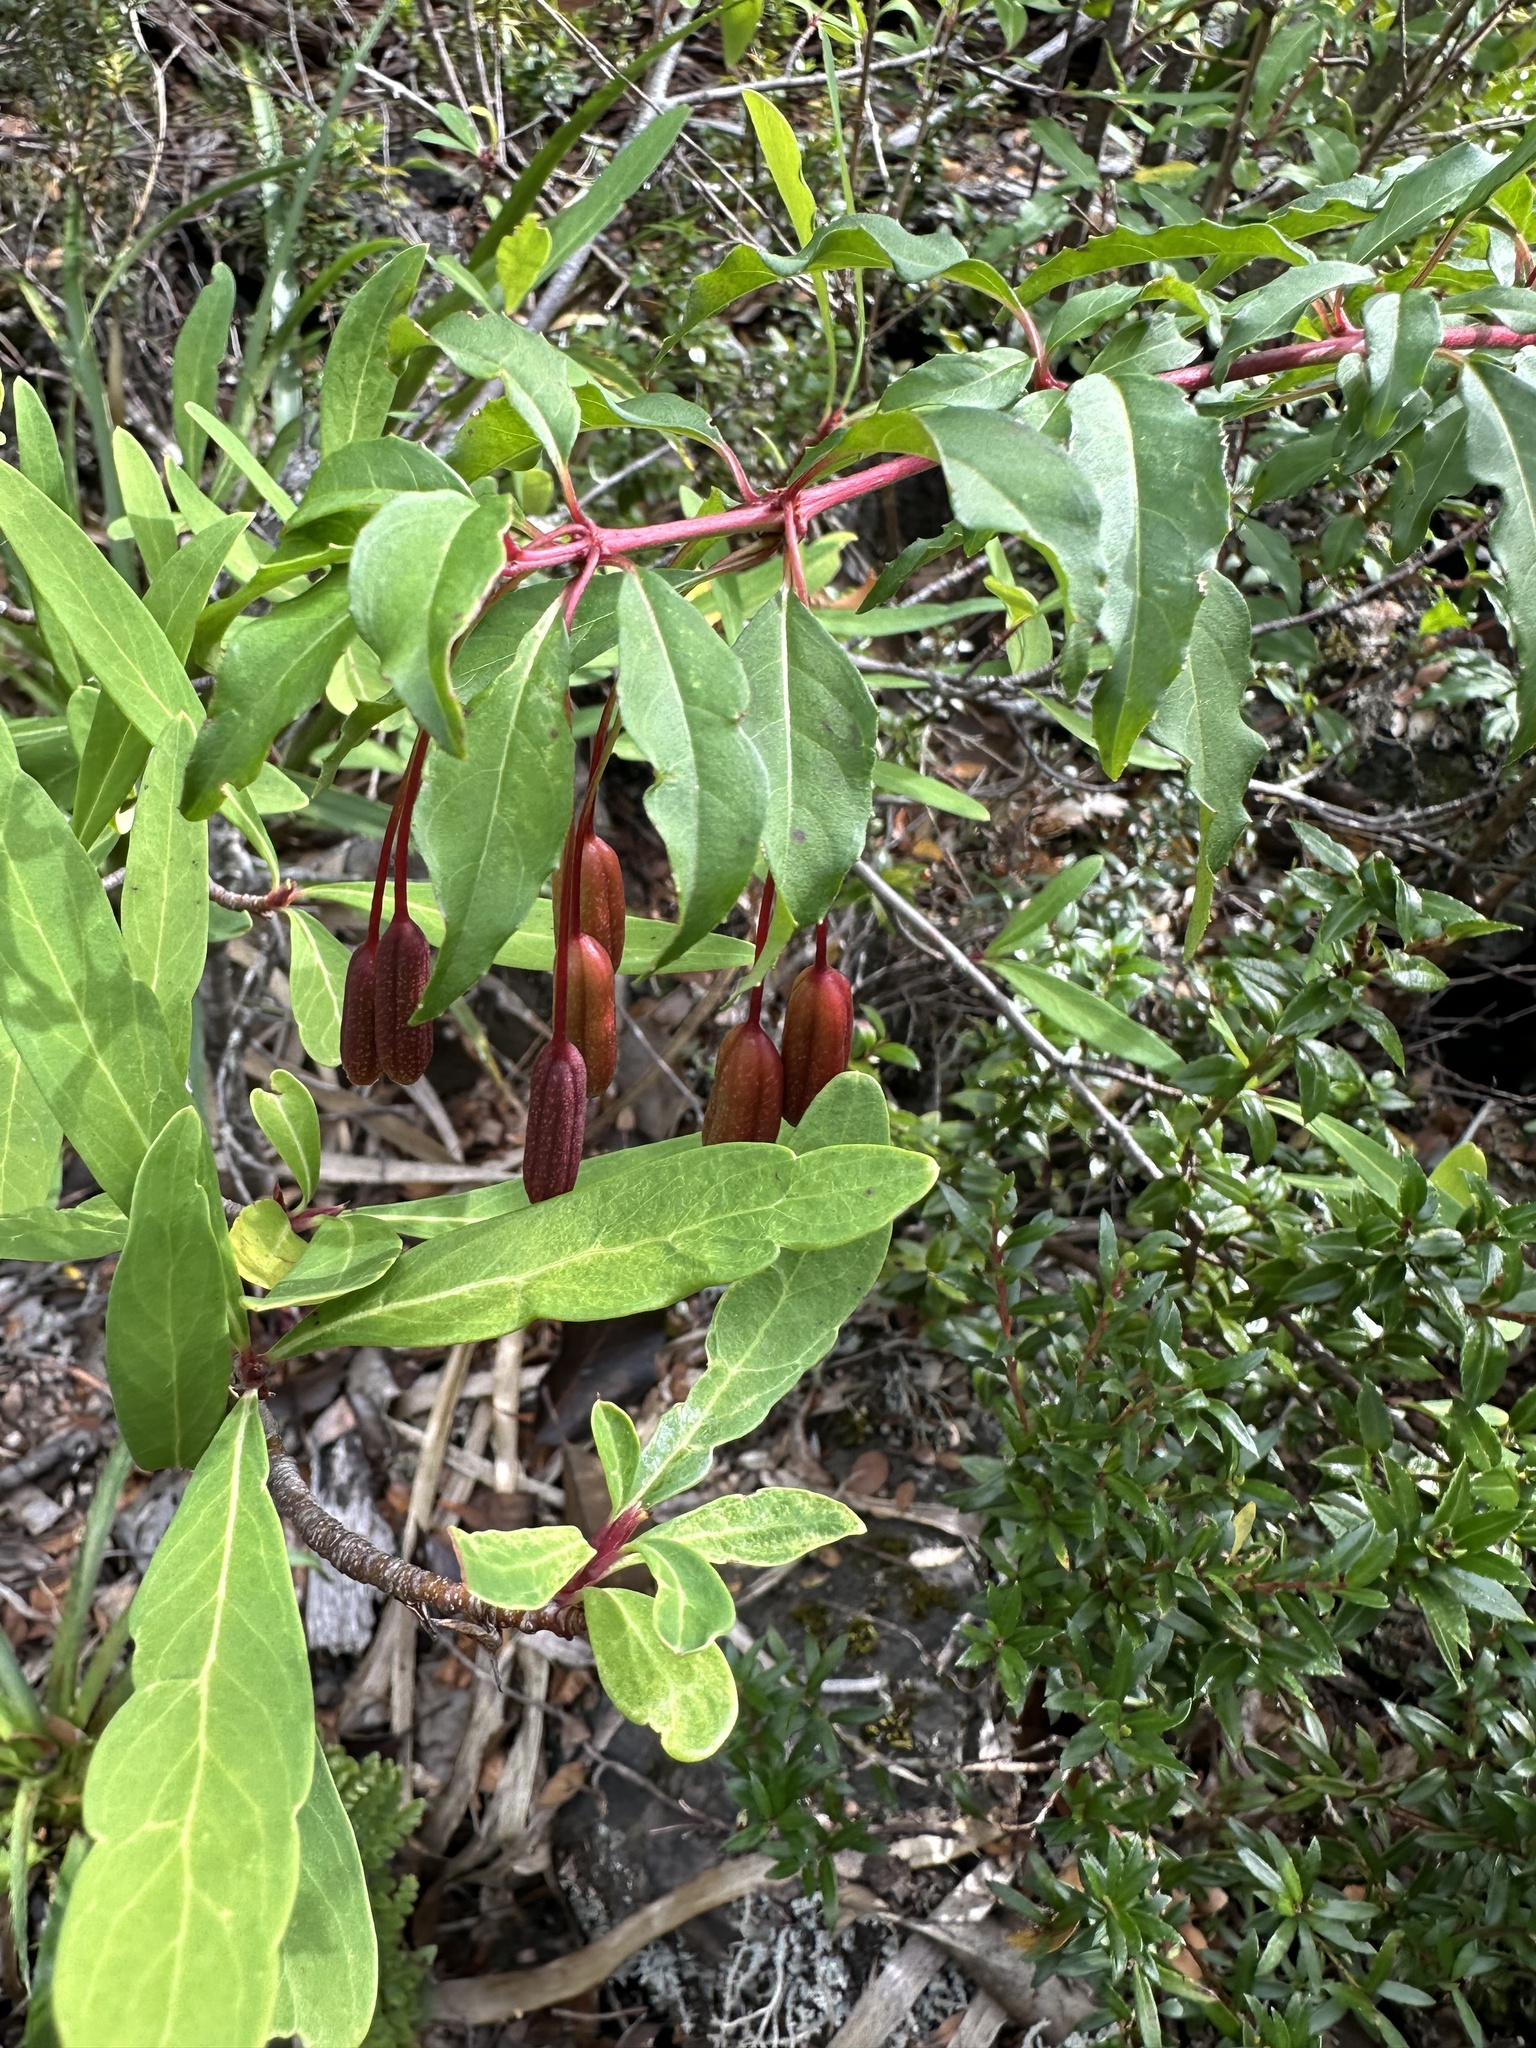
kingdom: Plantae
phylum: Tracheophyta
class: Magnoliopsida
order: Myrtales
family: Onagraceae
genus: Fuchsia
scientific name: Fuchsia magellanica
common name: Hardy fuchsia
